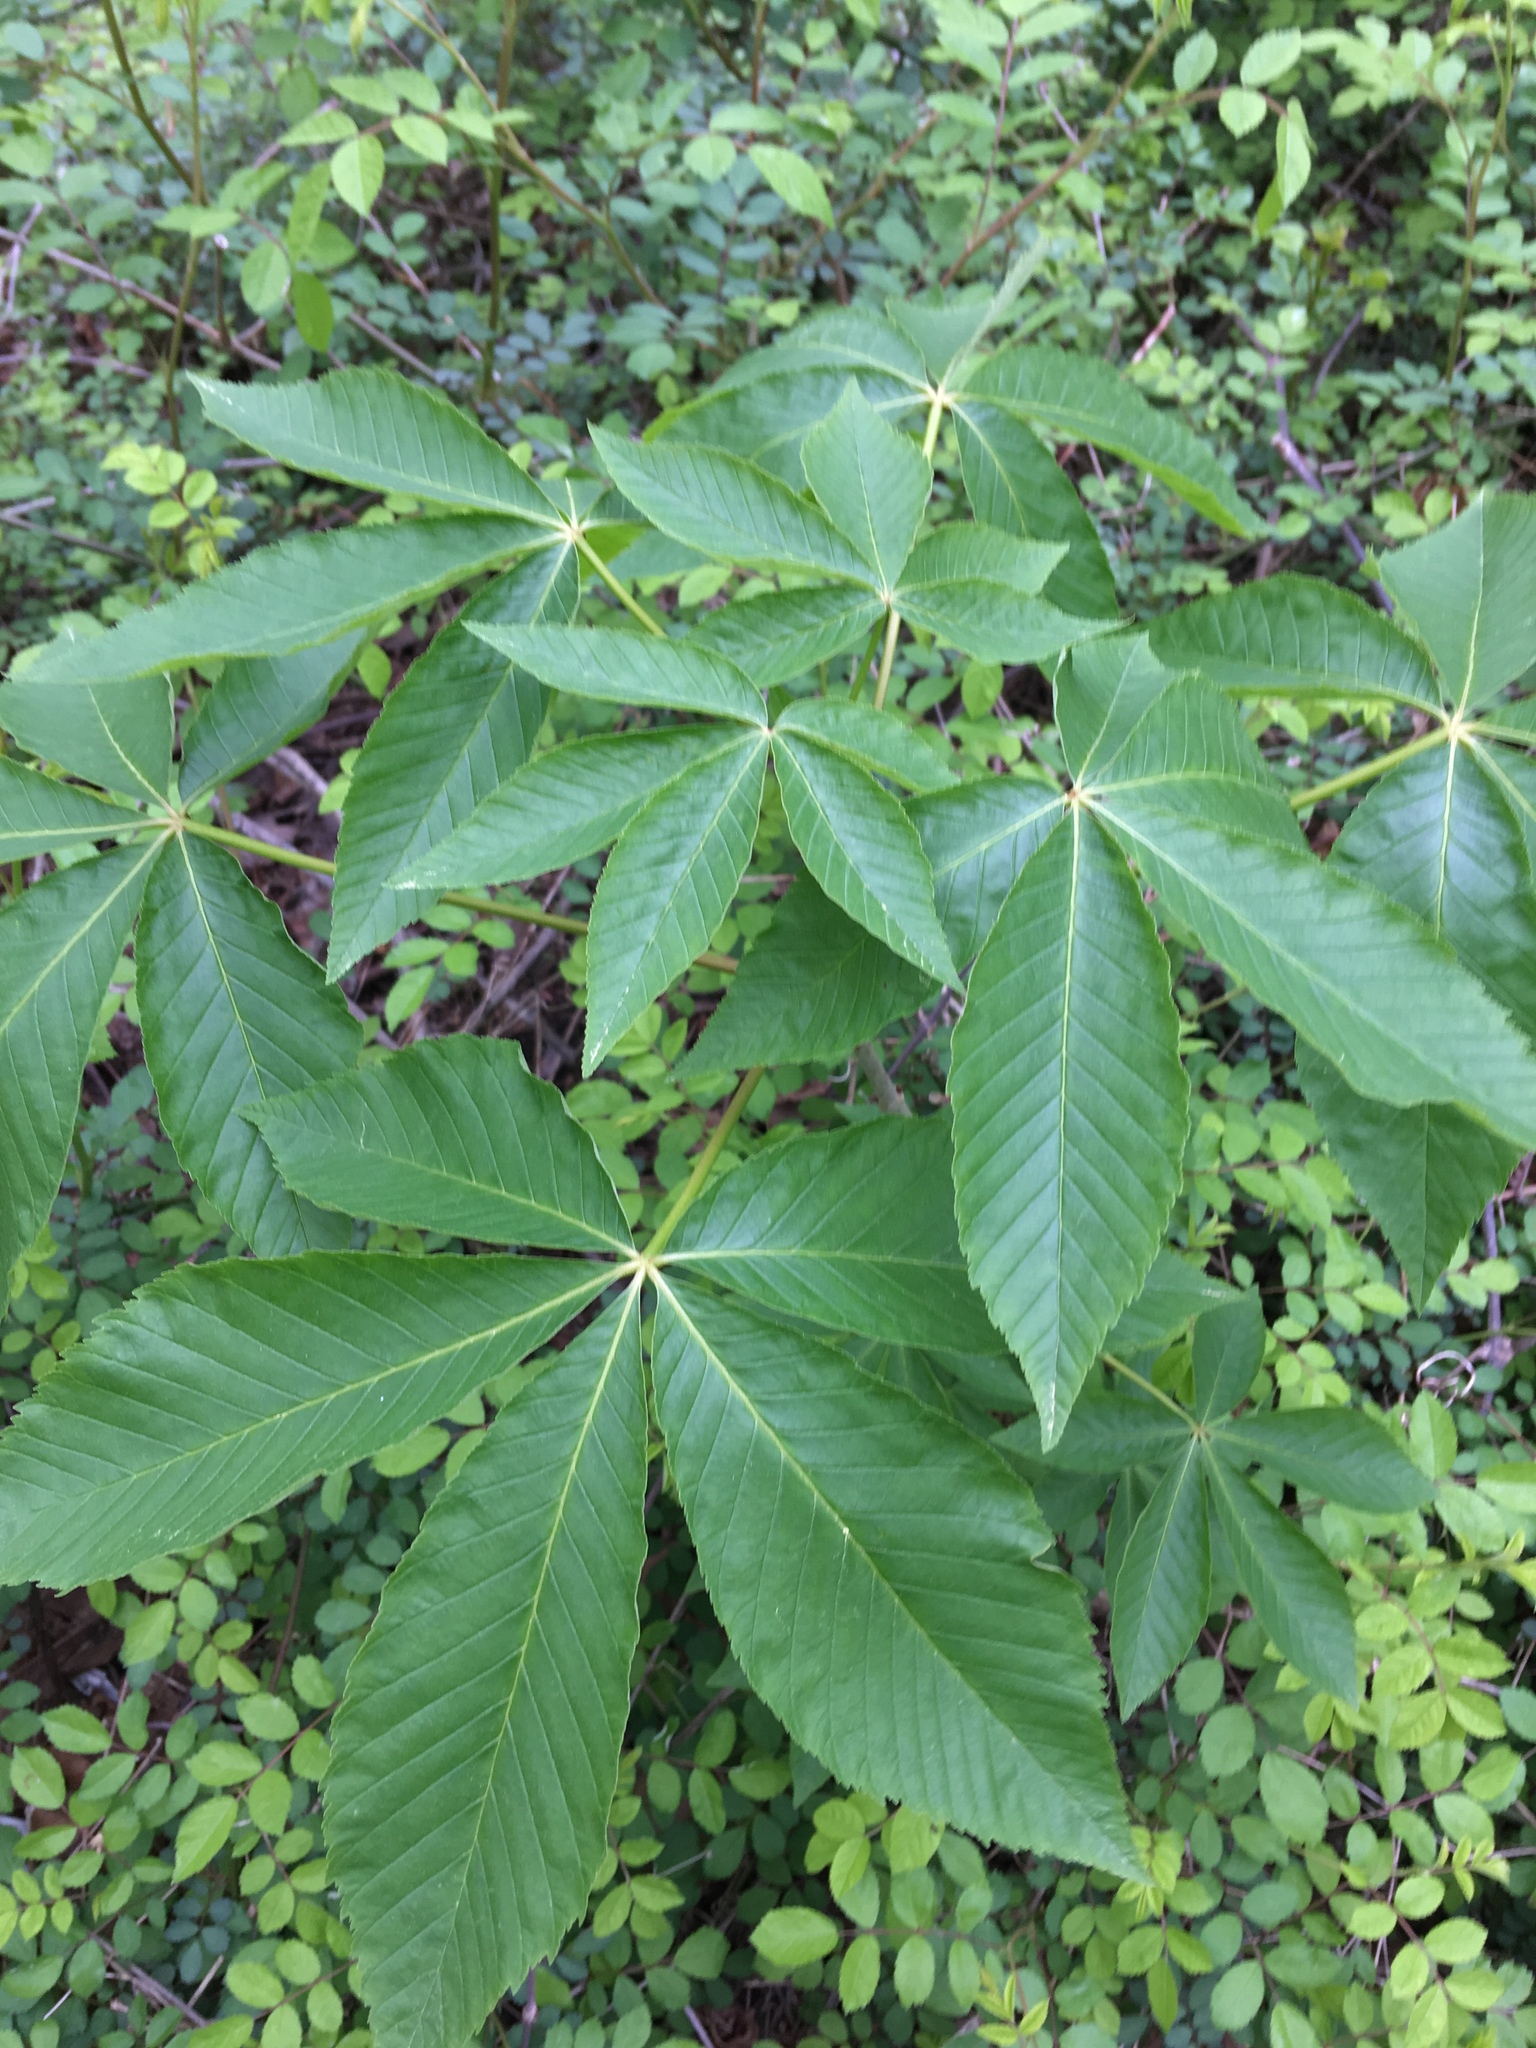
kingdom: Plantae
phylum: Tracheophyta
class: Magnoliopsida
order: Sapindales
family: Sapindaceae
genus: Aesculus
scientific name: Aesculus glabra
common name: Ohio buckeye
